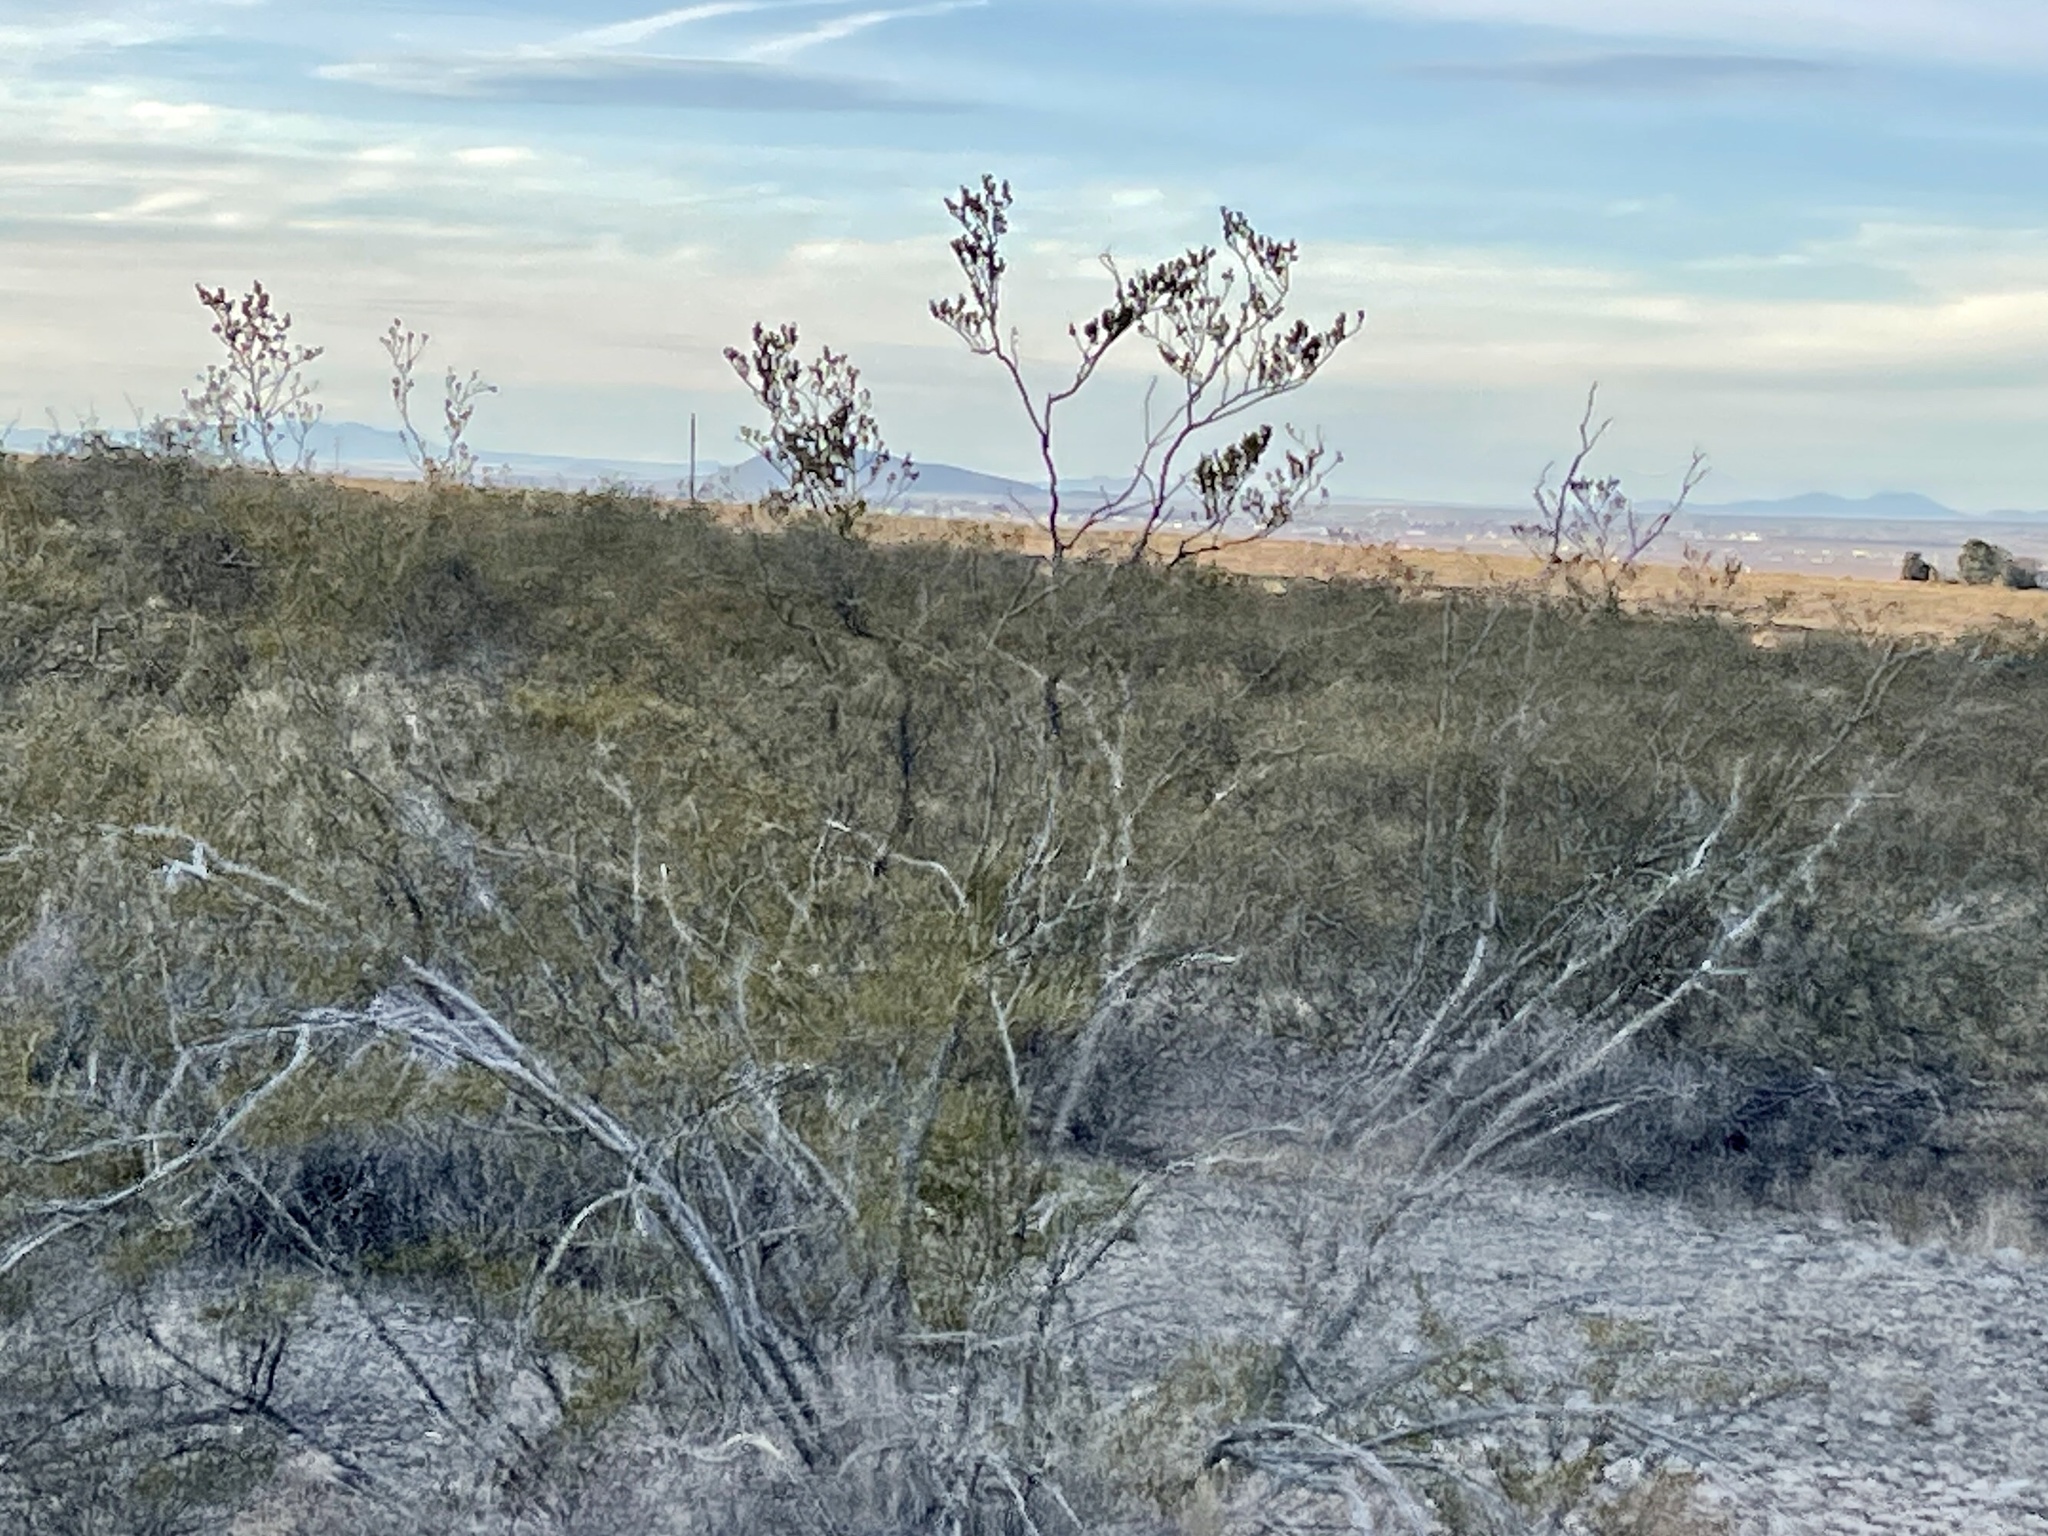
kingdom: Plantae
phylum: Tracheophyta
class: Magnoliopsida
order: Zygophyllales
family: Zygophyllaceae
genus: Larrea
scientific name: Larrea tridentata
